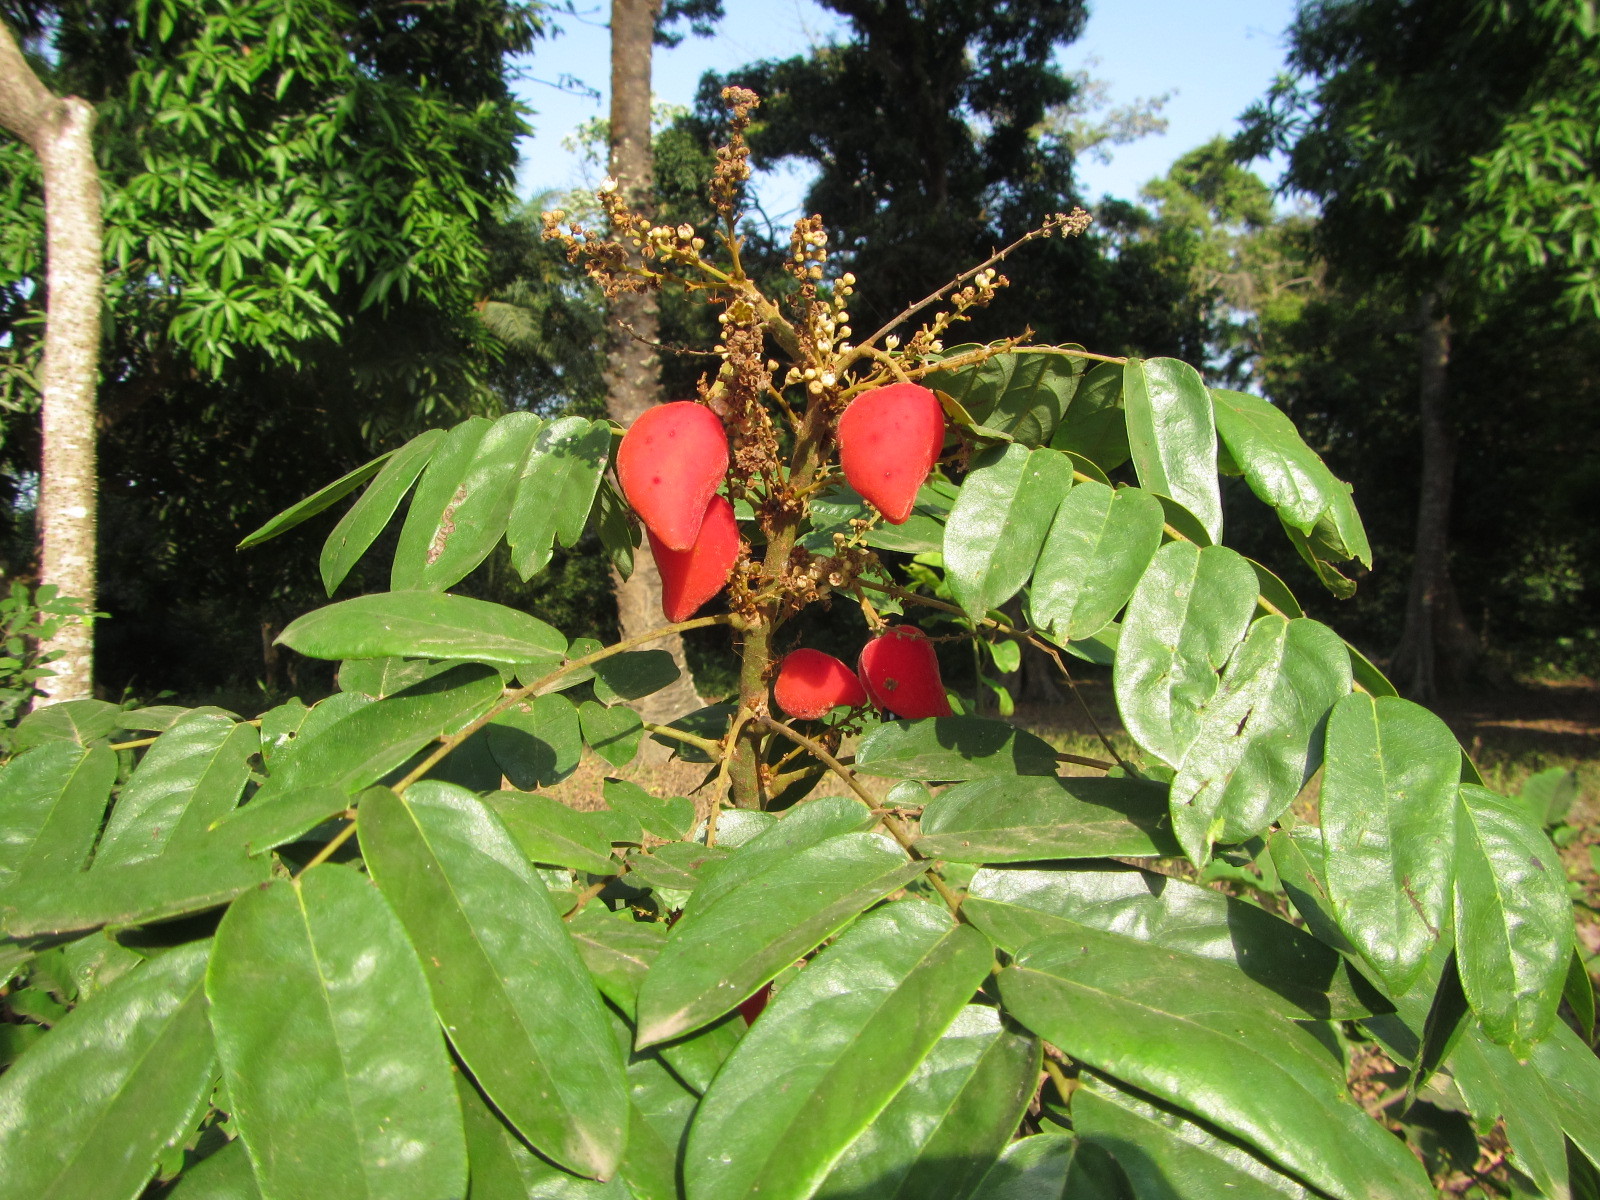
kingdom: Plantae
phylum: Tracheophyta
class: Magnoliopsida
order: Oxalidales
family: Connaraceae
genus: Cnestis
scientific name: Cnestis ferruginea
